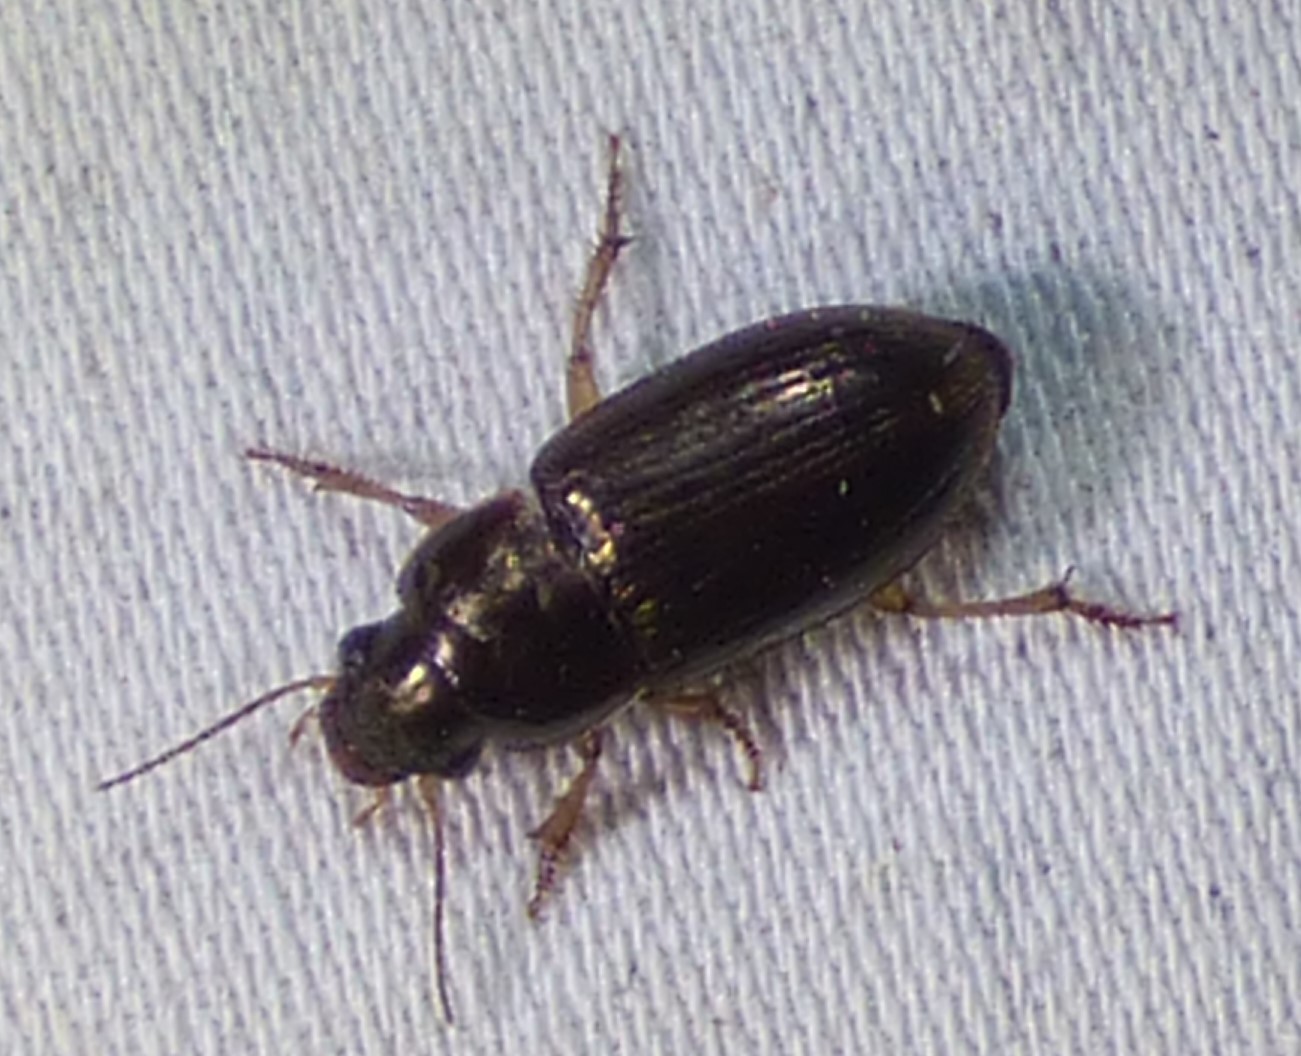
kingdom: Animalia
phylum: Arthropoda
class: Insecta
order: Coleoptera
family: Carabidae
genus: Selenophorus
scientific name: Selenophorus palliatus
